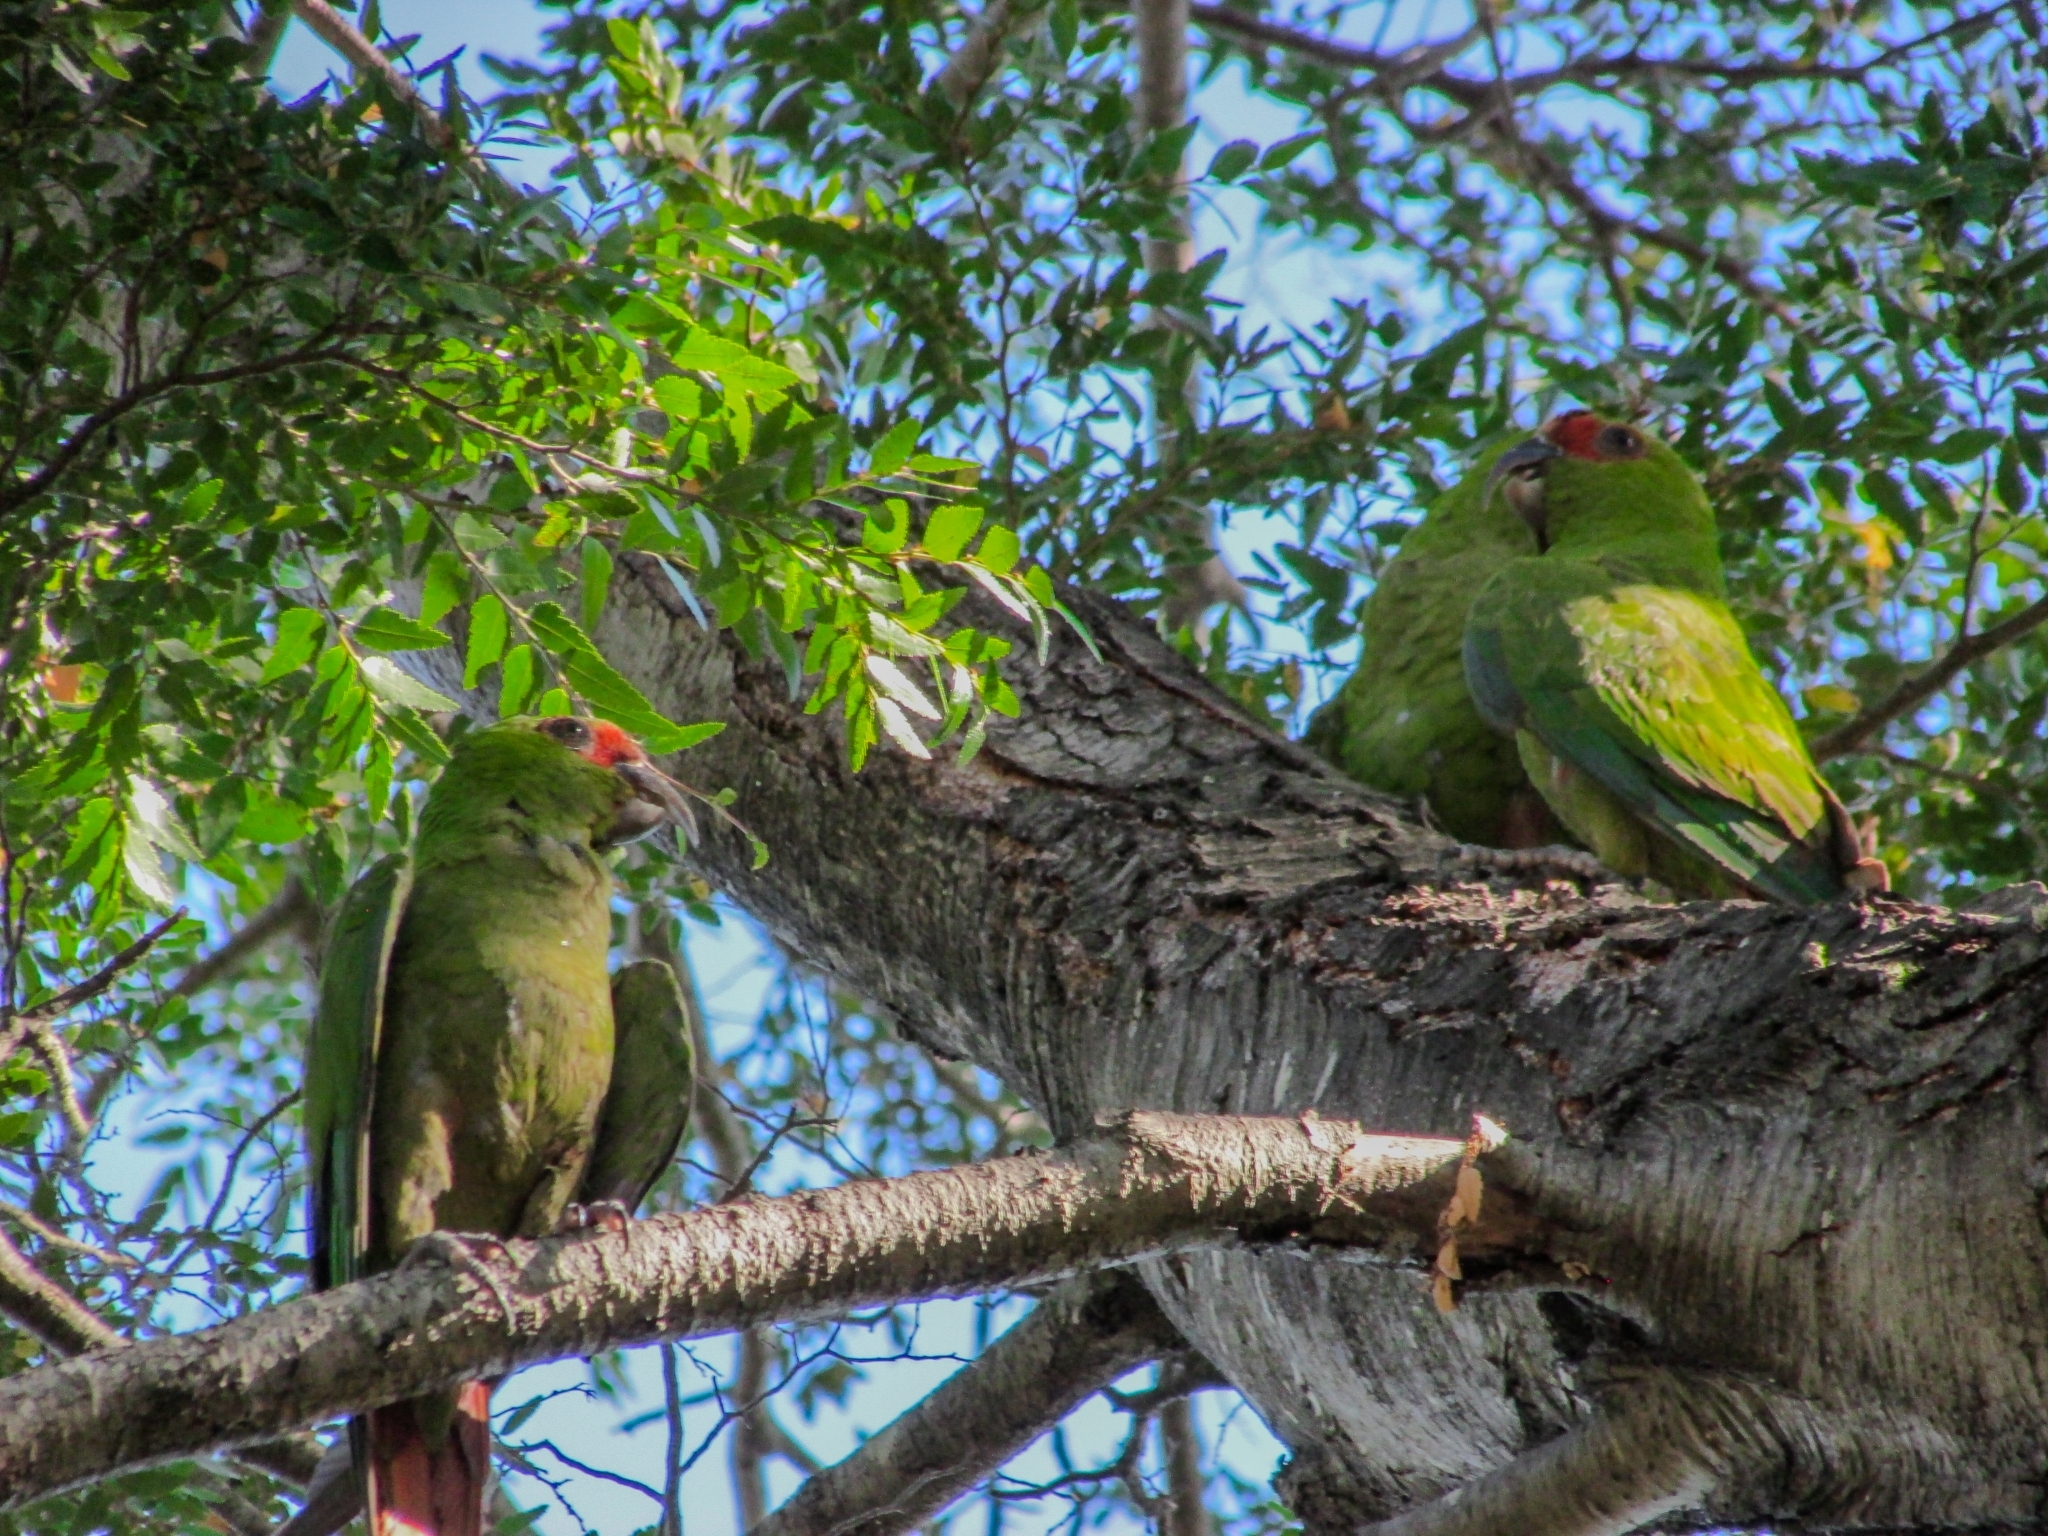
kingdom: Animalia
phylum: Chordata
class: Aves
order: Psittaciformes
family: Psittacidae
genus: Enicognathus
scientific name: Enicognathus leptorhynchus
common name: Slender-billed parakeet
